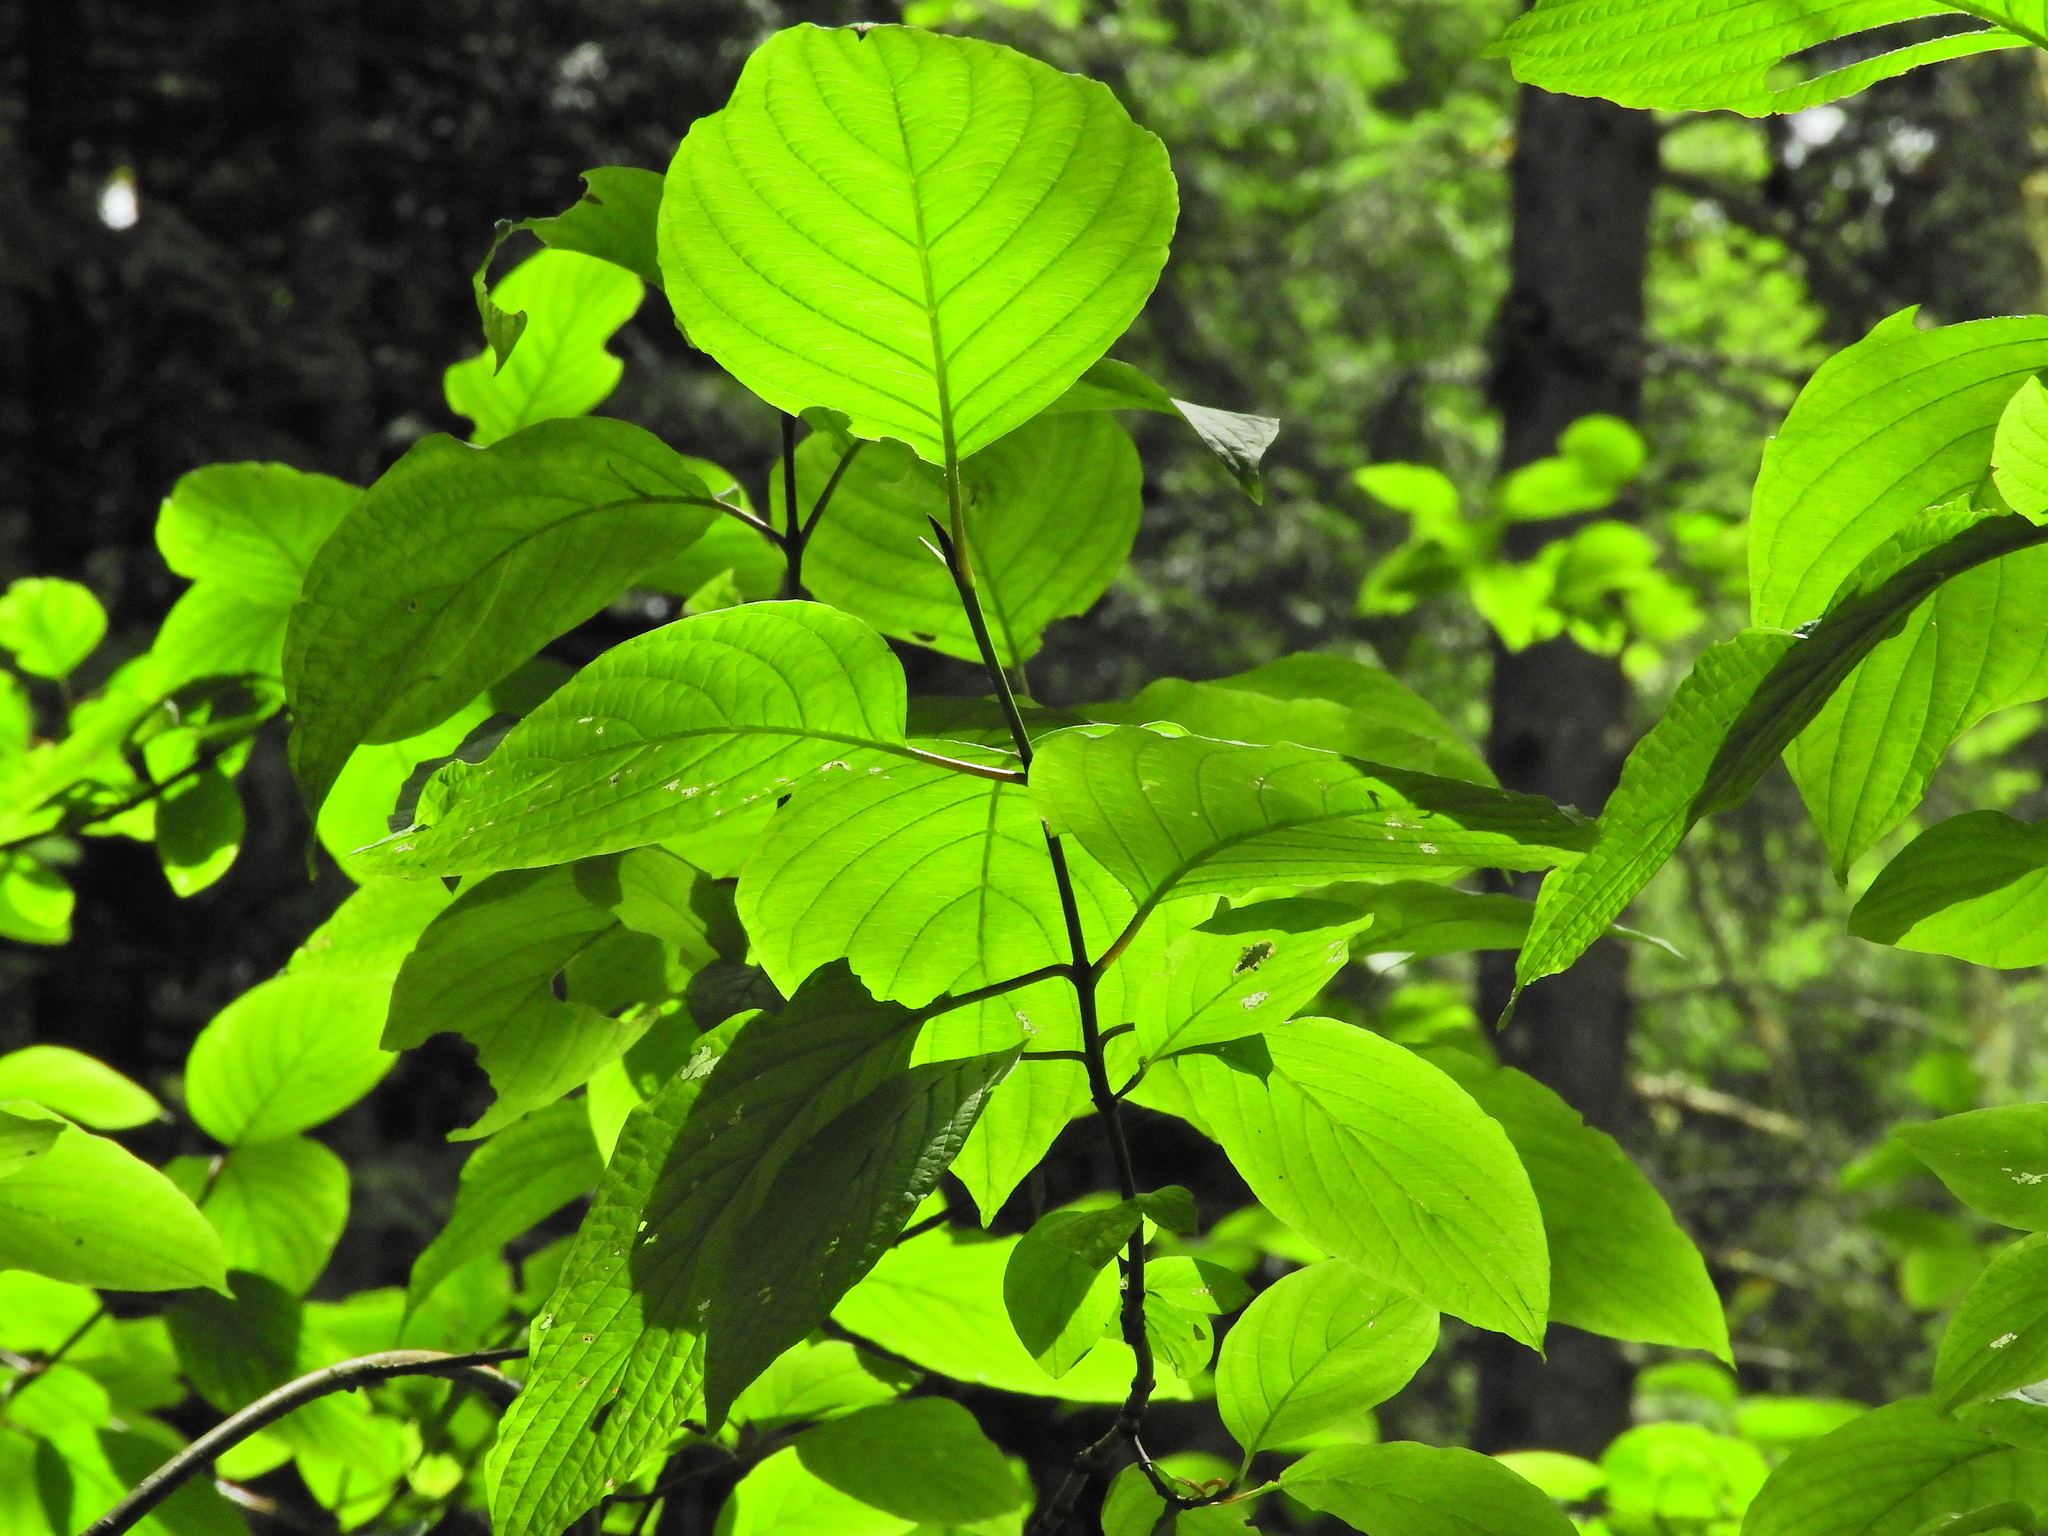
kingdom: Plantae
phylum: Tracheophyta
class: Magnoliopsida
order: Cornales
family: Cornaceae
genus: Cornus
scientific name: Cornus sericea
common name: Red-osier dogwood
